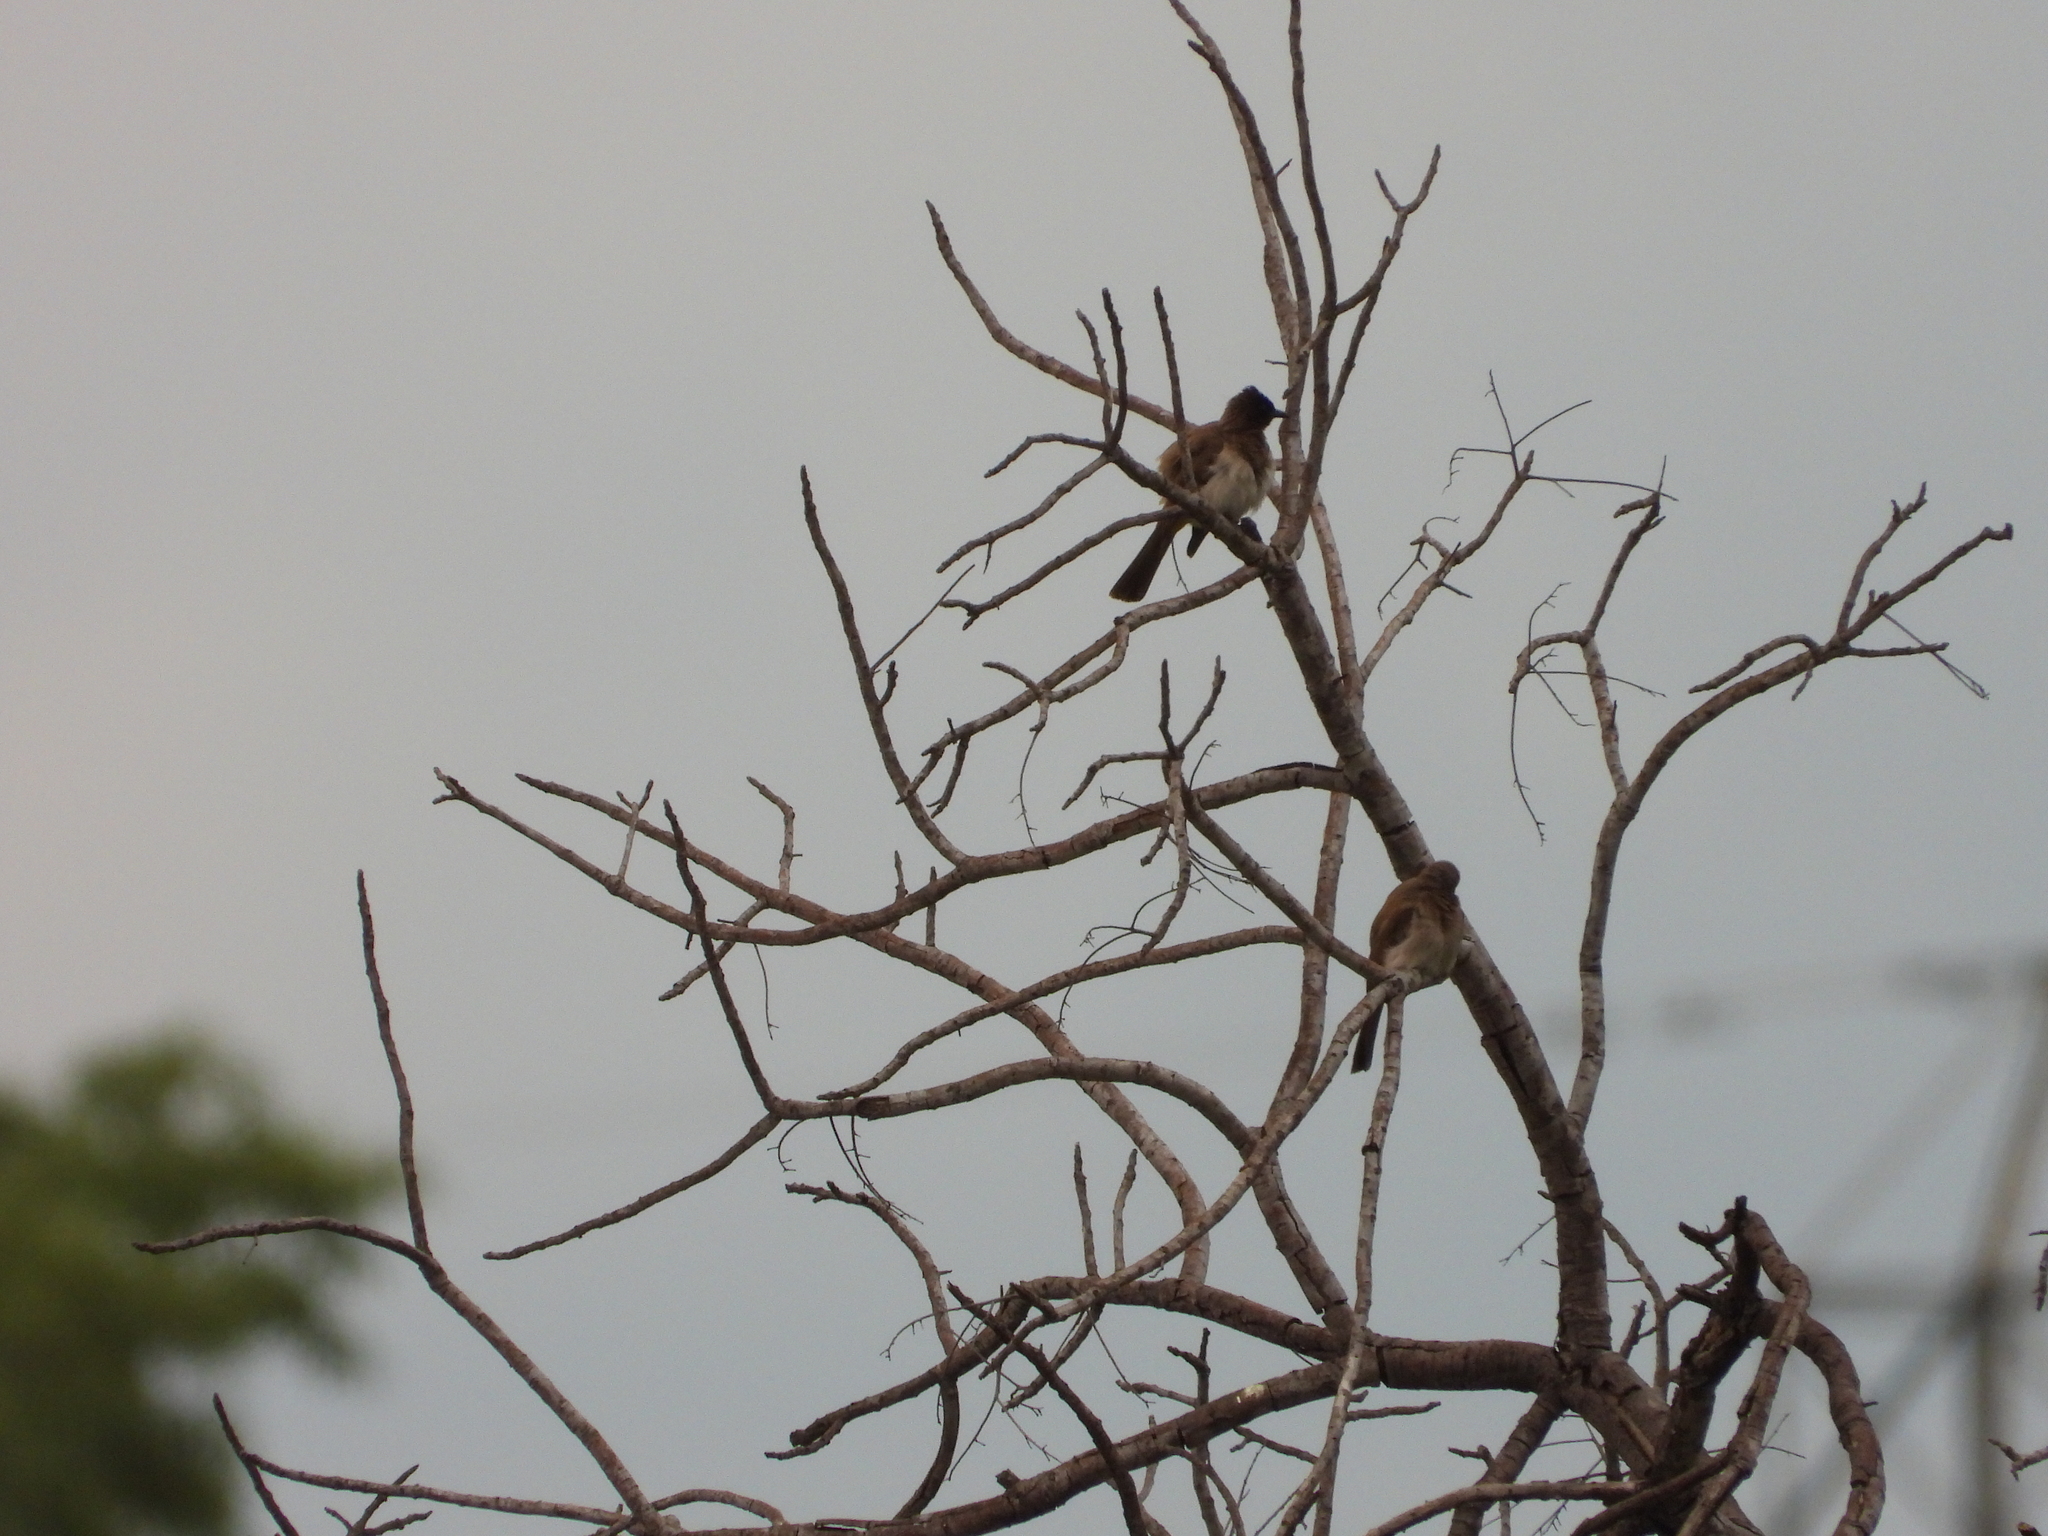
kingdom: Animalia
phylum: Chordata
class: Aves
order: Passeriformes
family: Pycnonotidae
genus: Pycnonotus
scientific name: Pycnonotus barbatus
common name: Common bulbul
